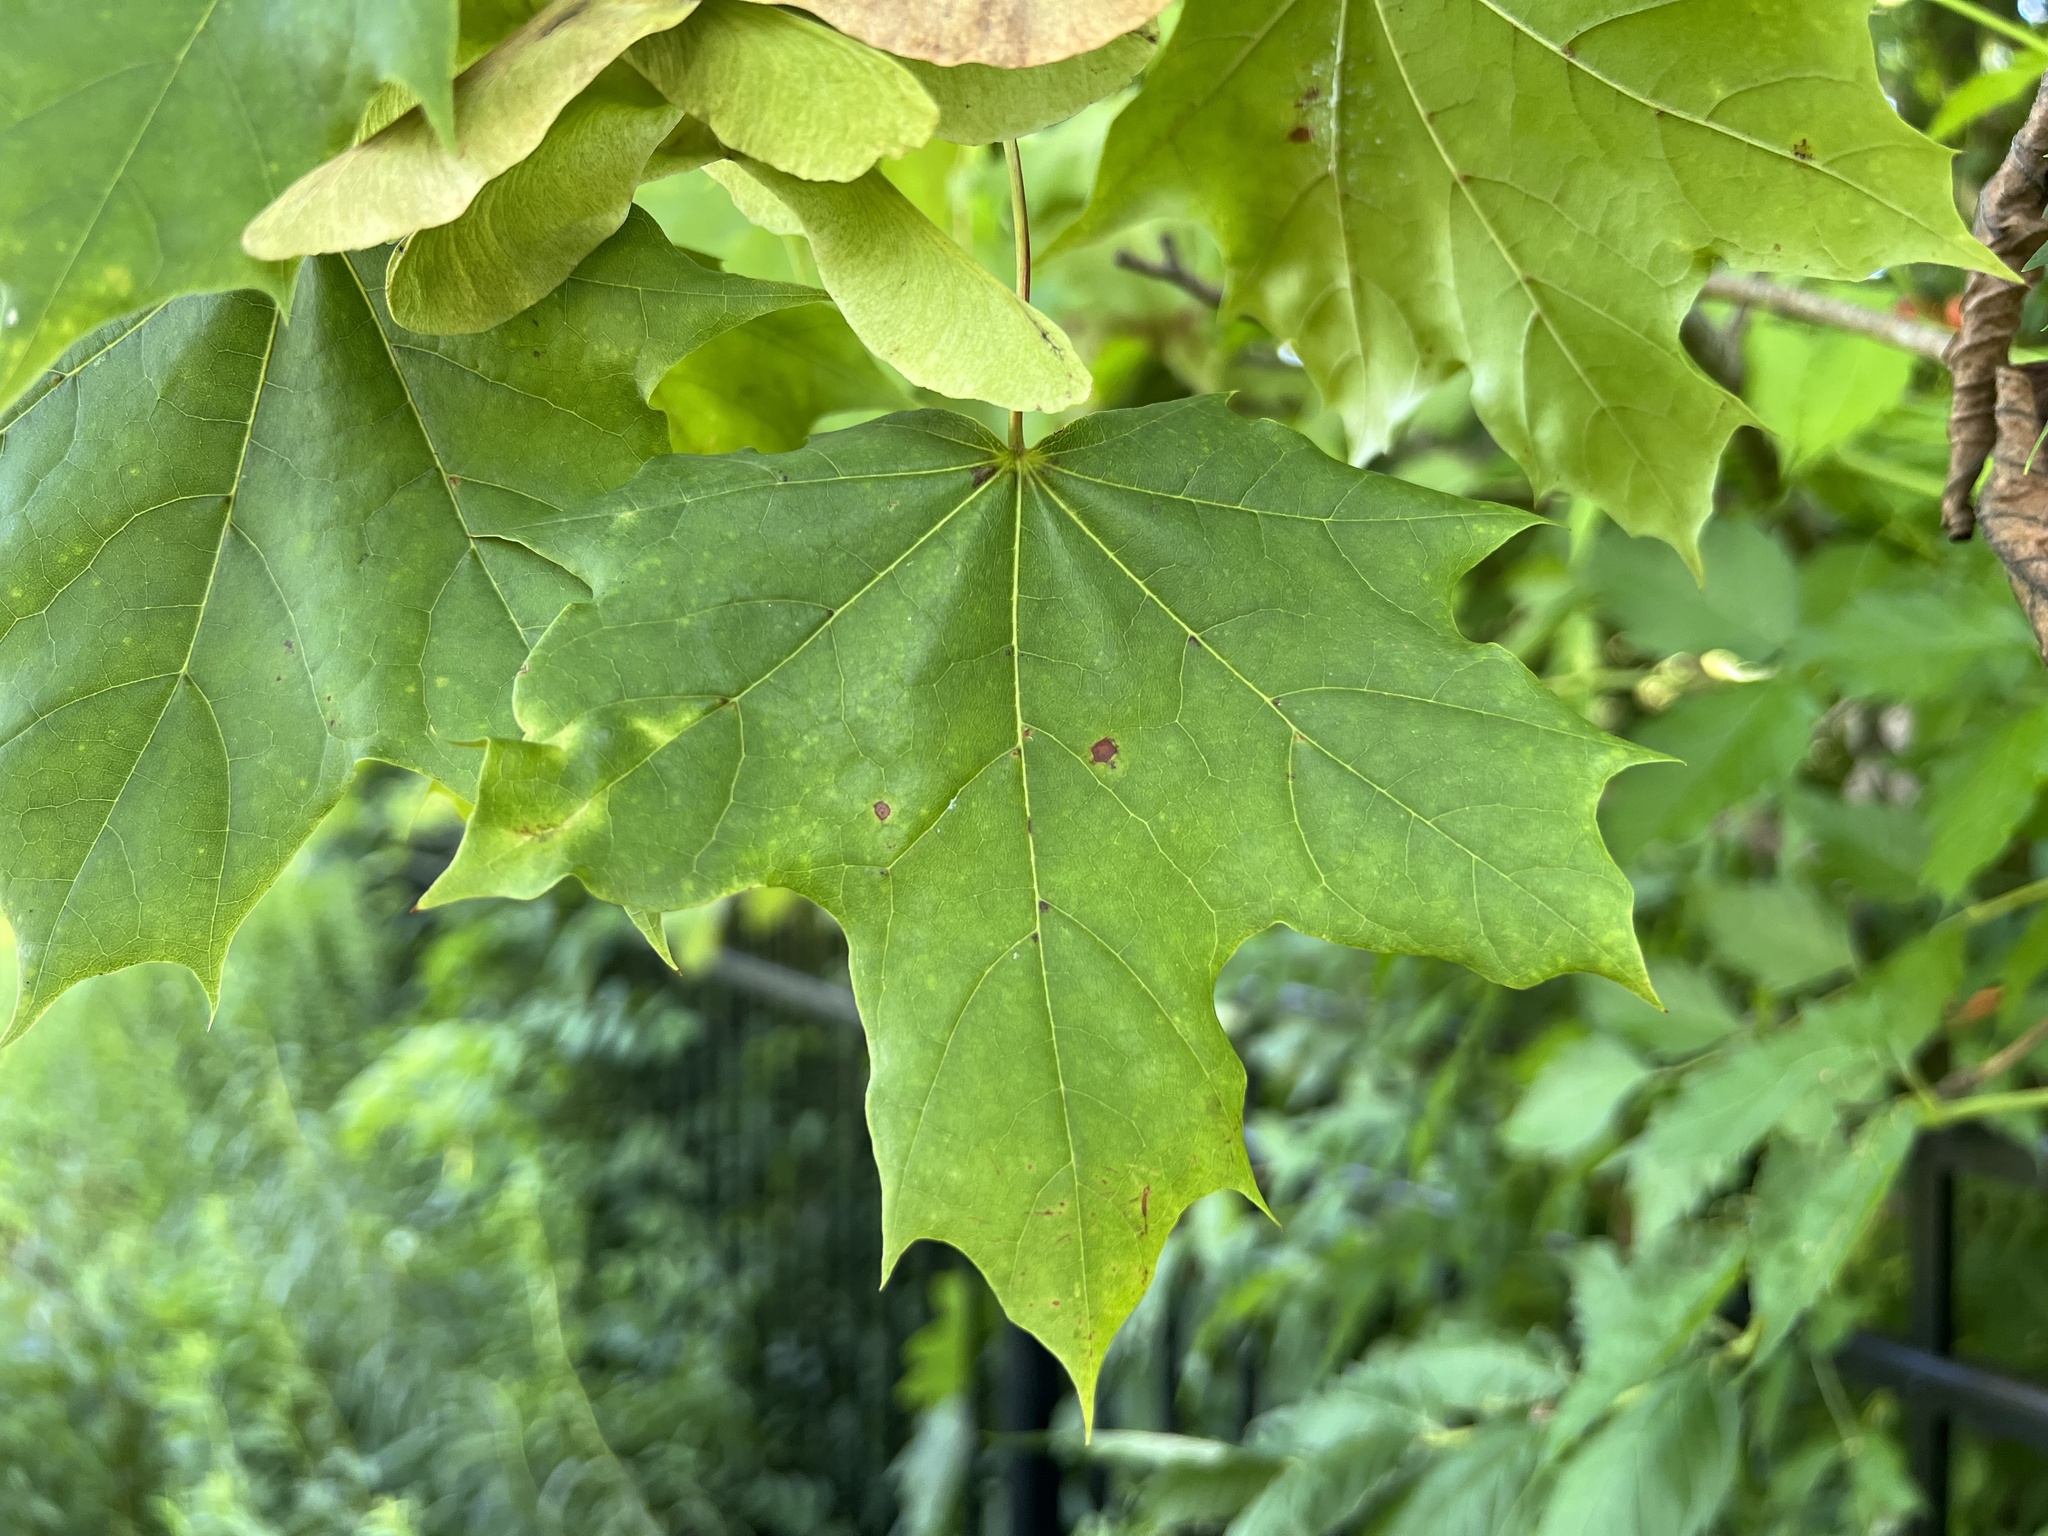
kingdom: Plantae
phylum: Tracheophyta
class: Magnoliopsida
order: Sapindales
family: Sapindaceae
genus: Acer
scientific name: Acer platanoides
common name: Norway maple
